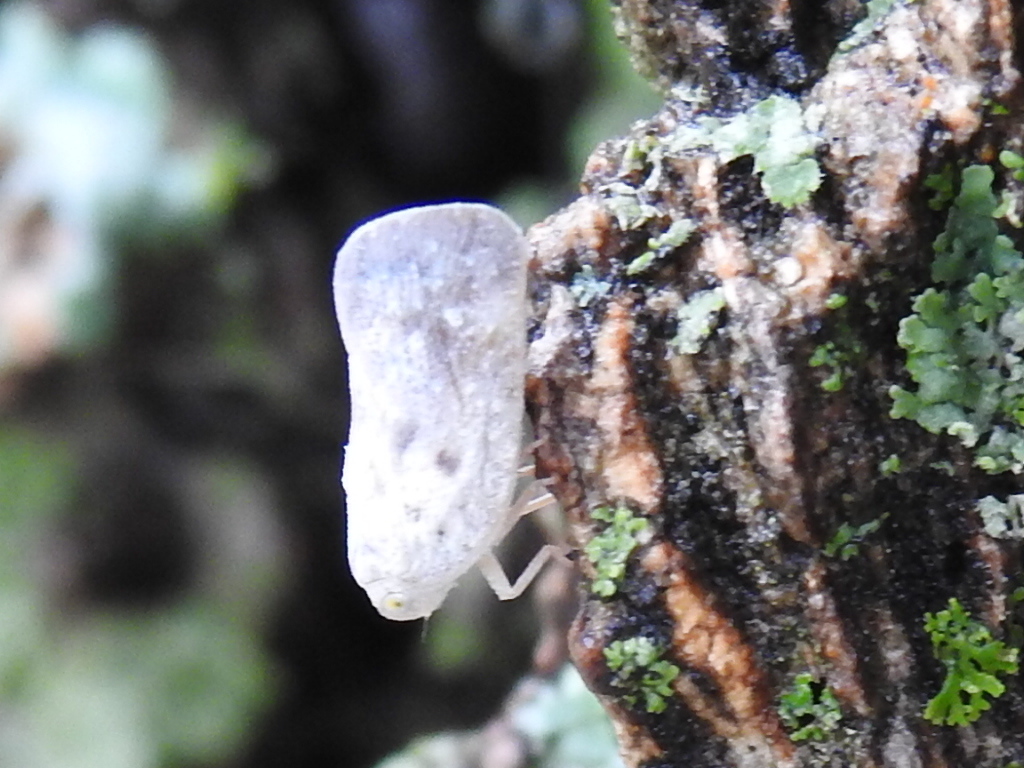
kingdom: Animalia
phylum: Arthropoda
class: Insecta
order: Hemiptera
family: Flatidae
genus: Metcalfa
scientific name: Metcalfa pruinosa
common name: Citrus flatid planthopper
